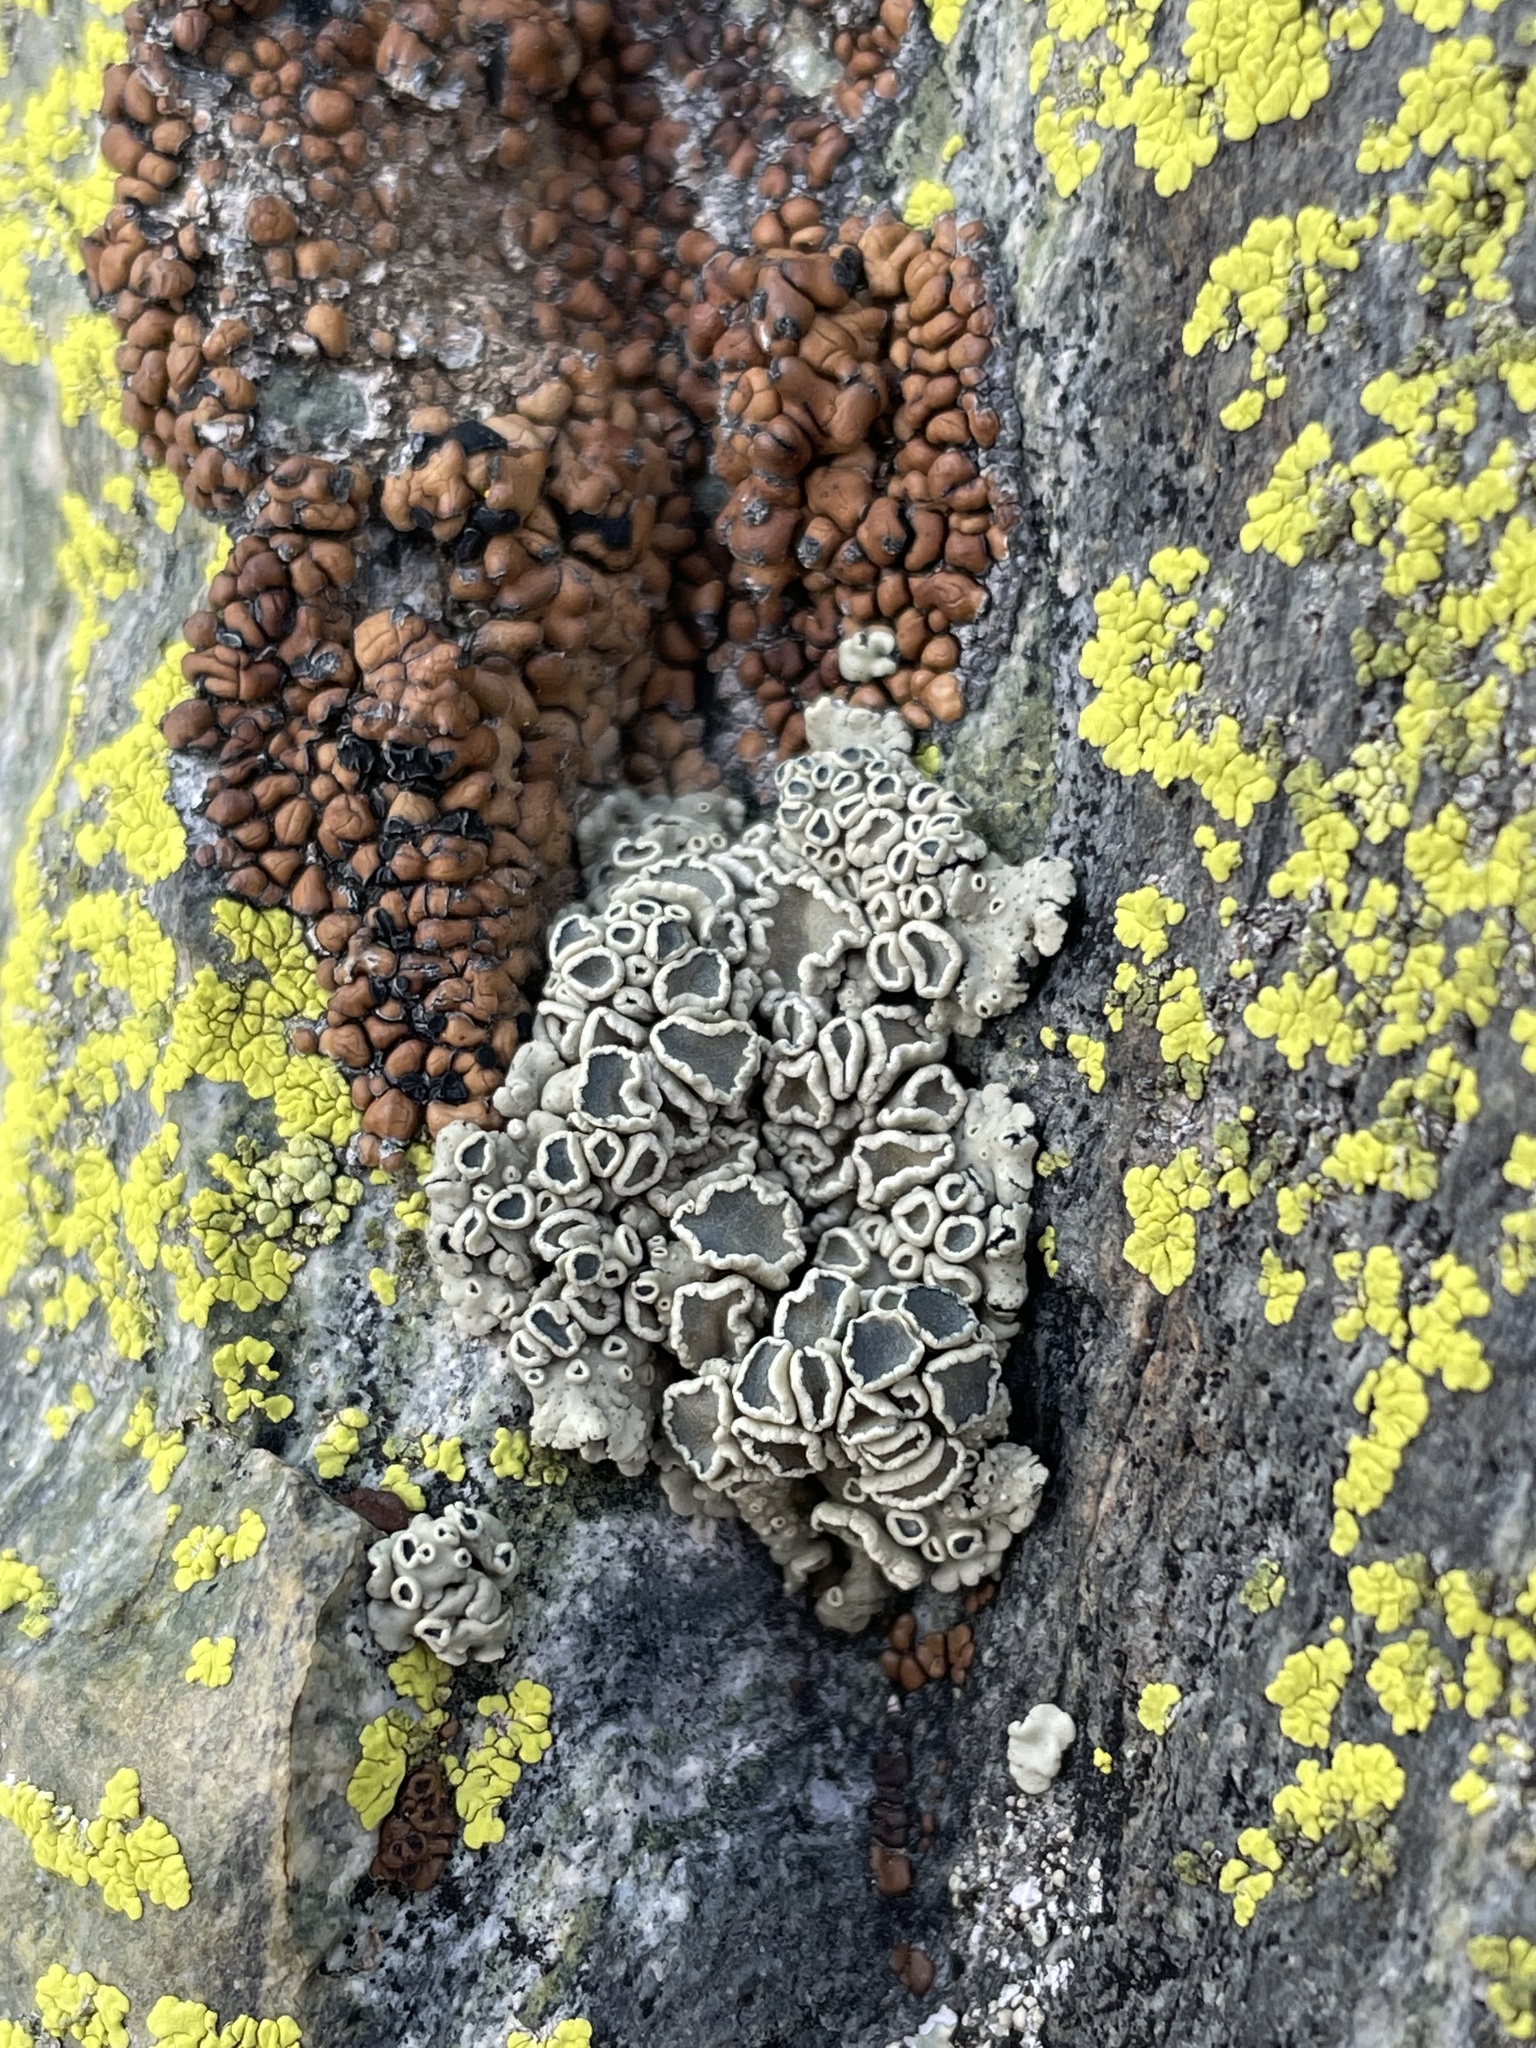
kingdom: Fungi
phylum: Ascomycota
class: Lecanoromycetes
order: Lecanorales
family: Lecanoraceae
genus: Rhizoplaca
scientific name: Rhizoplaca melanophthalma
